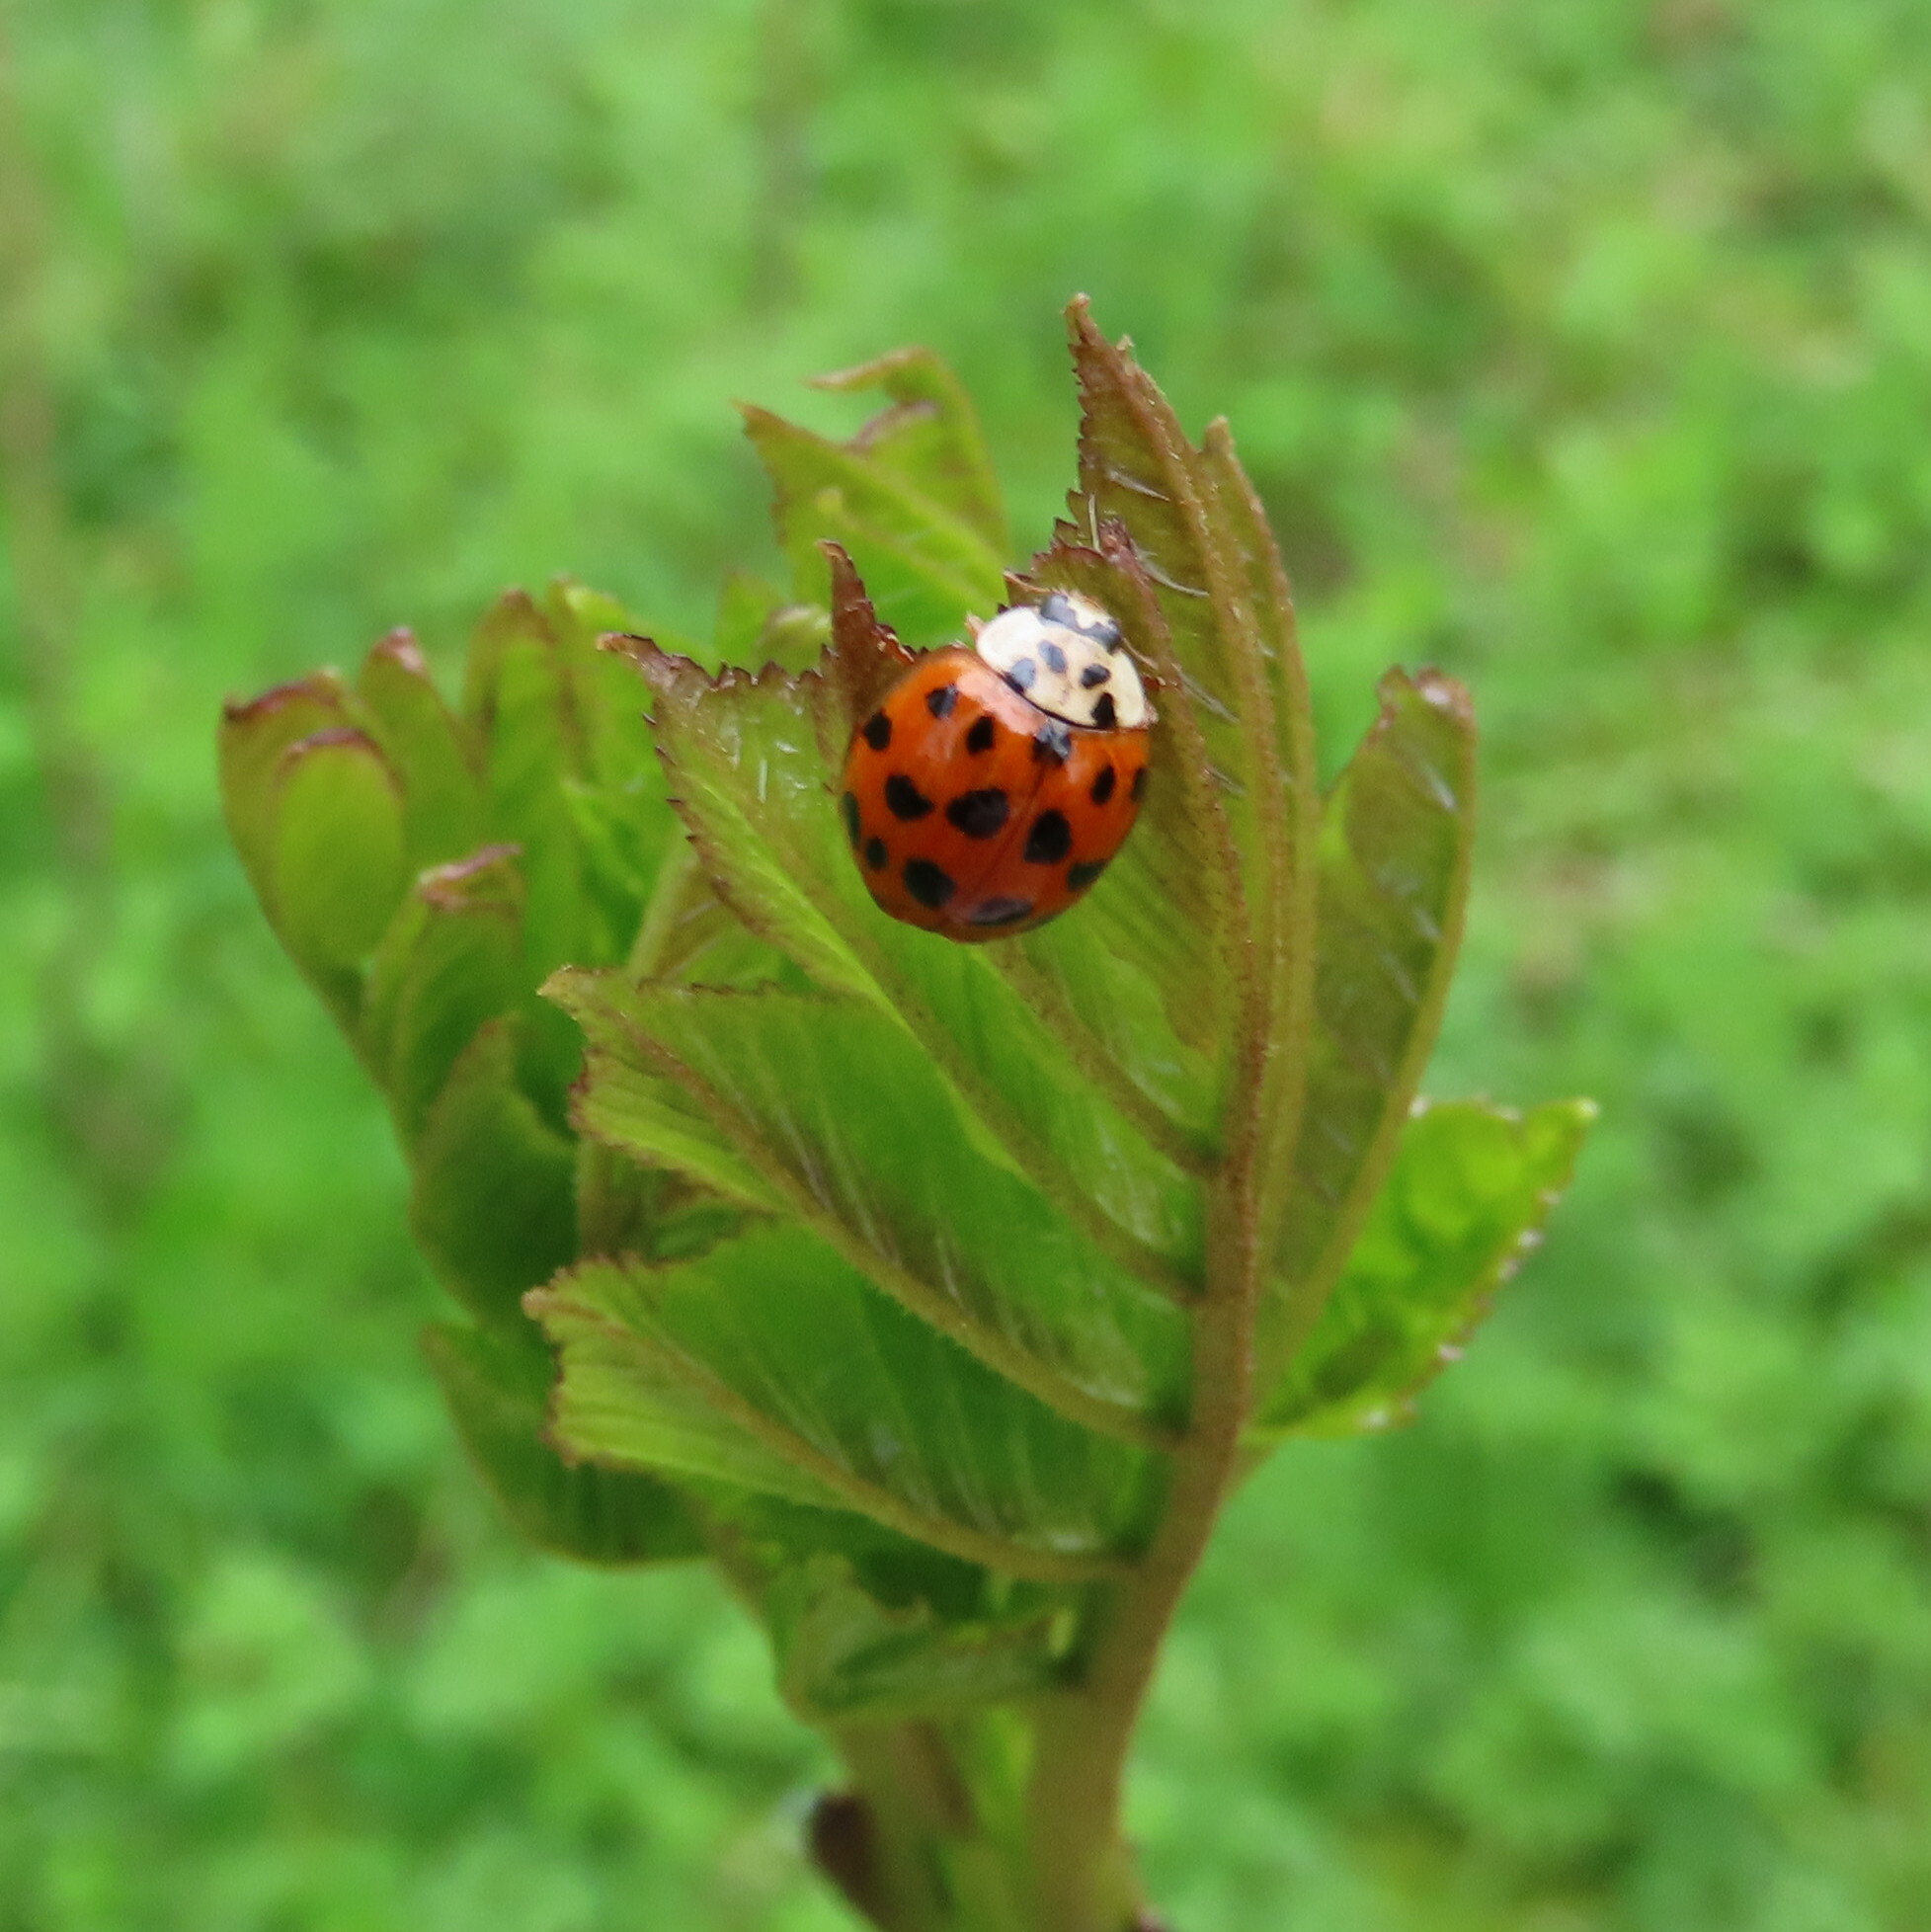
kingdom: Animalia
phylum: Arthropoda
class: Insecta
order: Coleoptera
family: Coccinellidae
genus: Harmonia
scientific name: Harmonia axyridis
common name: Harlequin ladybird
